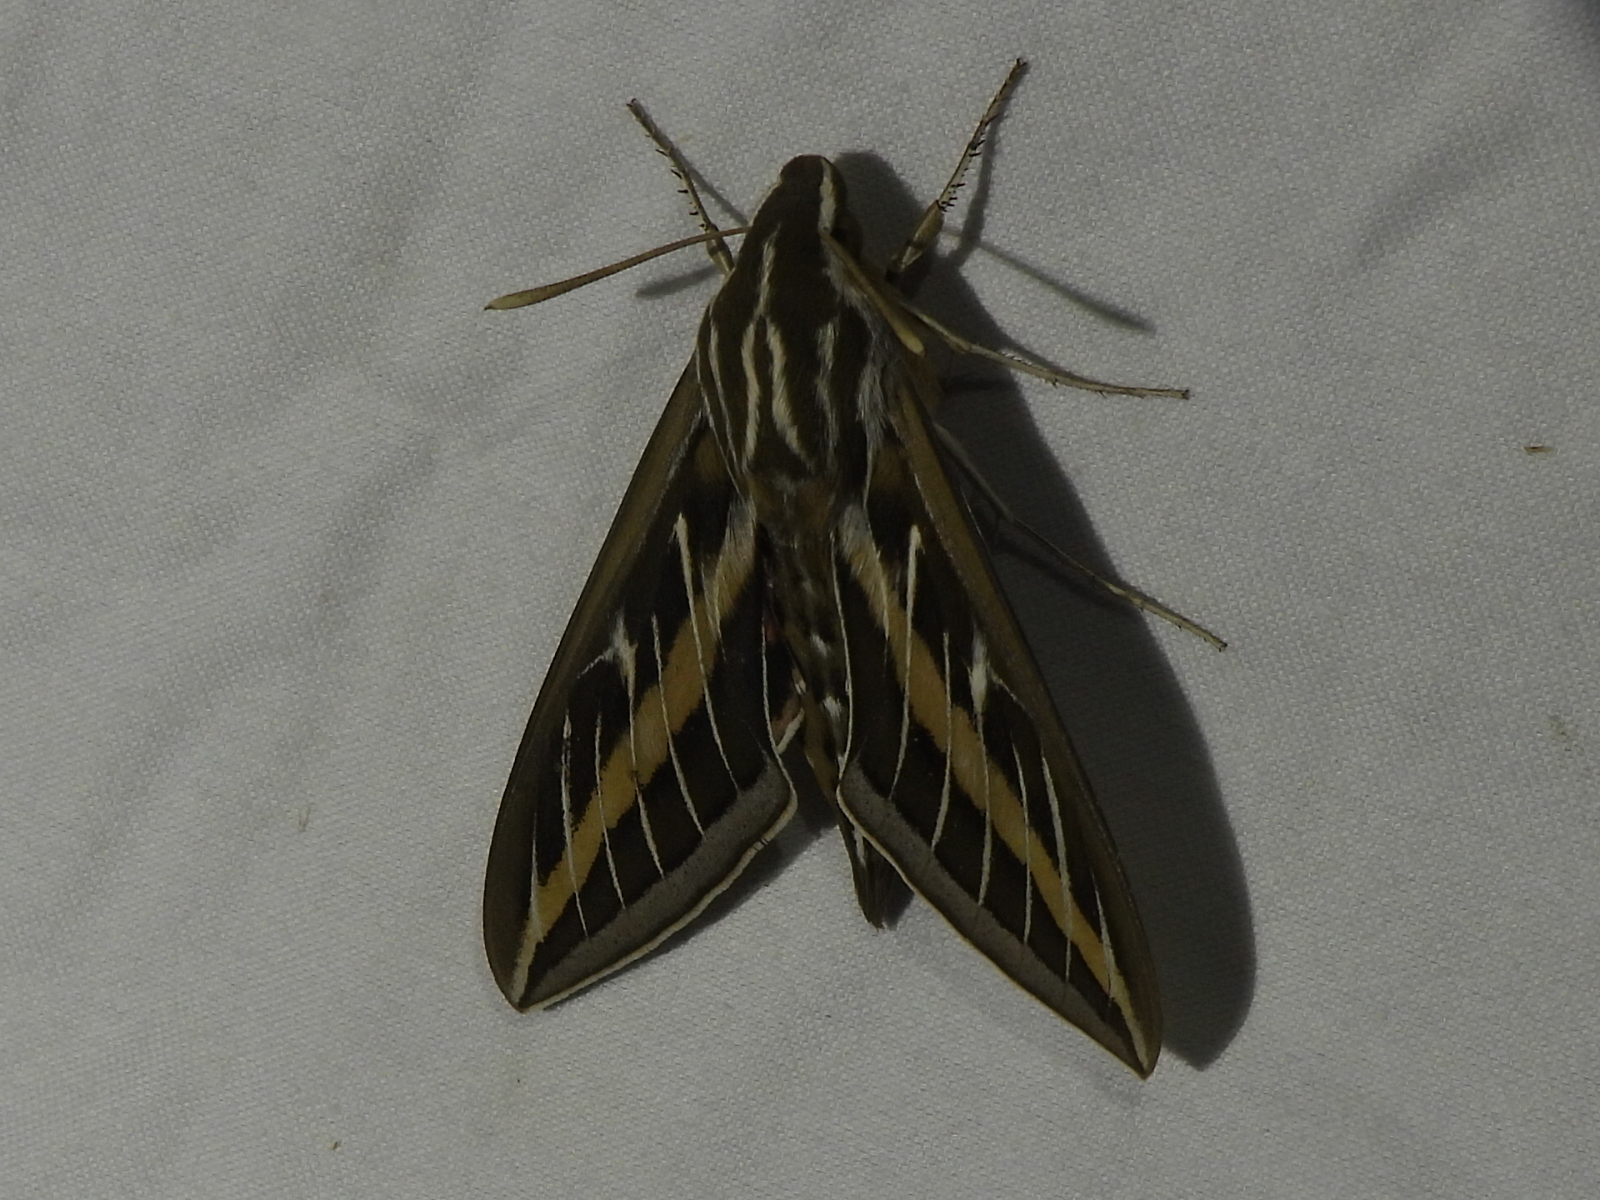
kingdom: Animalia
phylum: Arthropoda
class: Insecta
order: Lepidoptera
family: Sphingidae
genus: Hyles
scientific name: Hyles lineata
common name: White-lined sphinx
